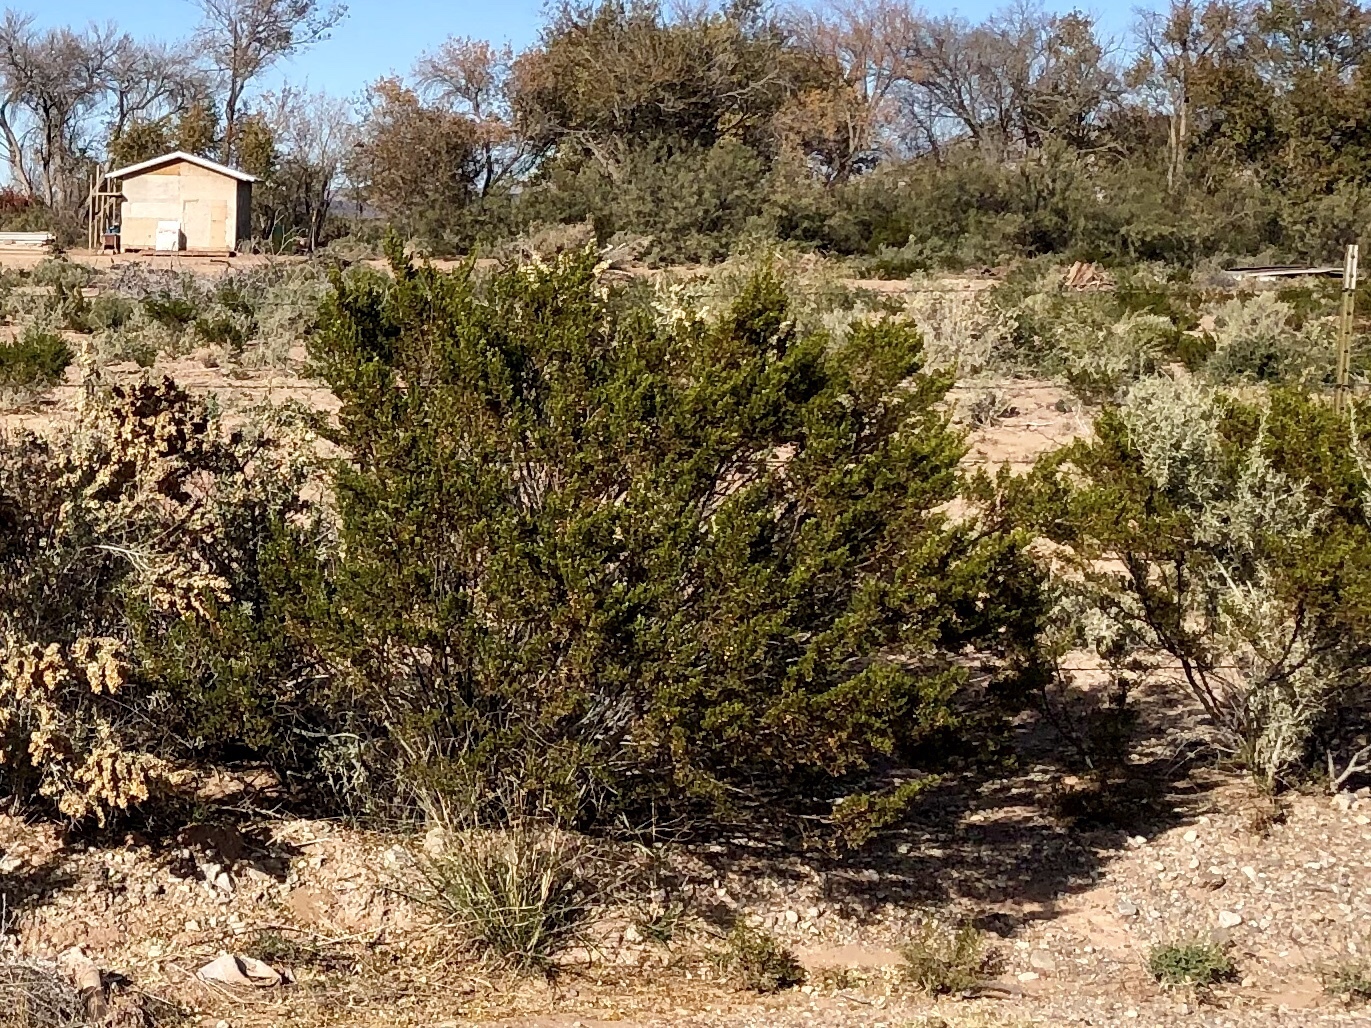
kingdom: Plantae
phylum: Tracheophyta
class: Magnoliopsida
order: Zygophyllales
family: Zygophyllaceae
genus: Larrea
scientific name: Larrea tridentata
